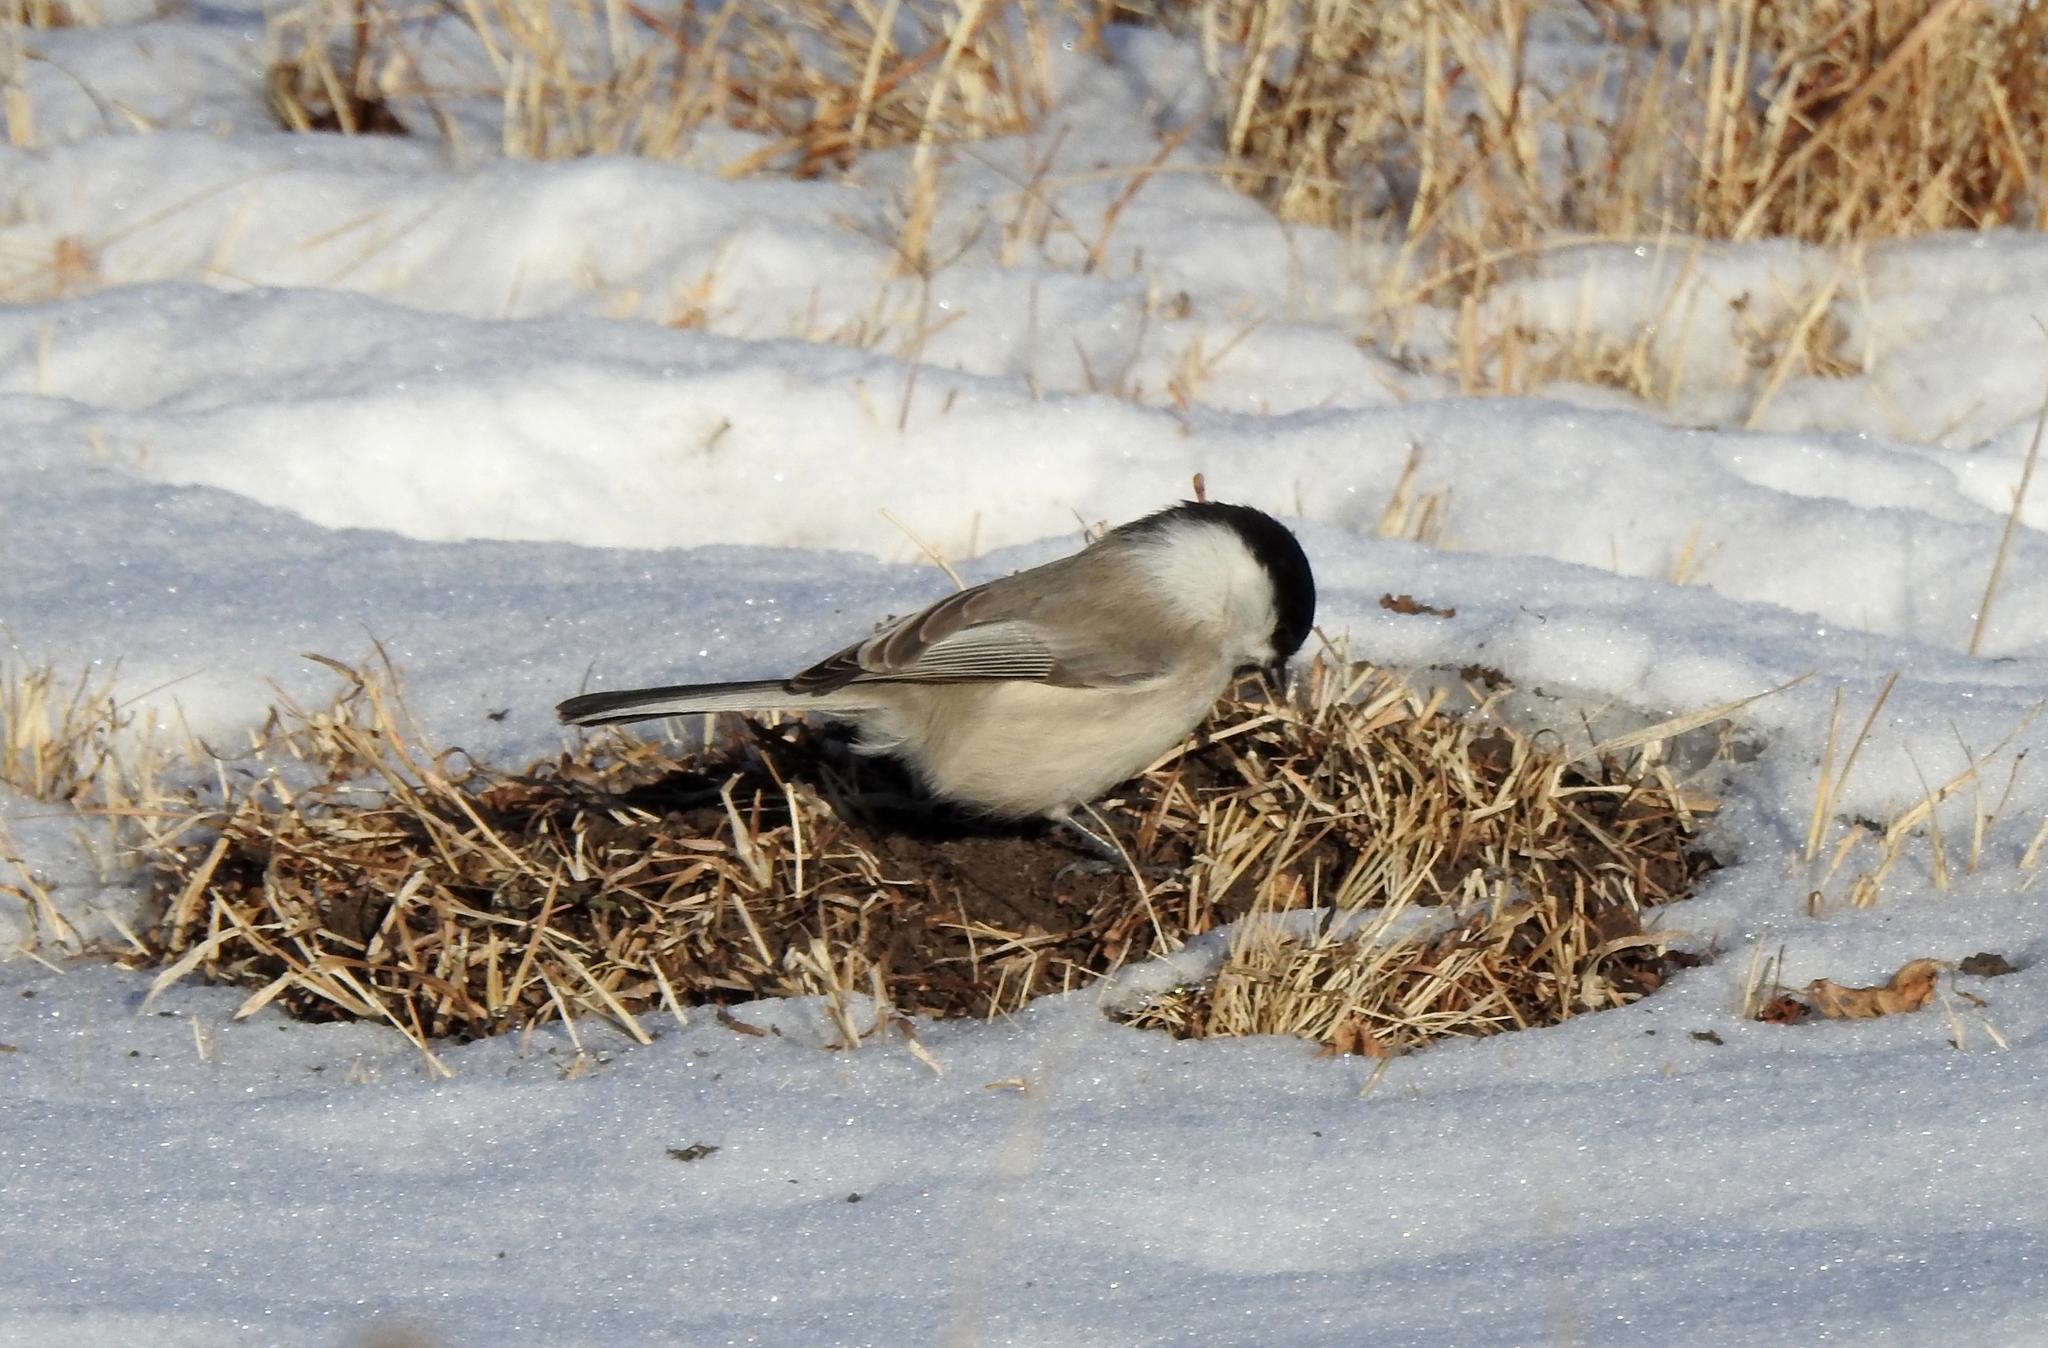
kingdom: Animalia
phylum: Chordata
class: Aves
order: Passeriformes
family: Paridae
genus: Poecile
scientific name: Poecile montanus
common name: Willow tit
